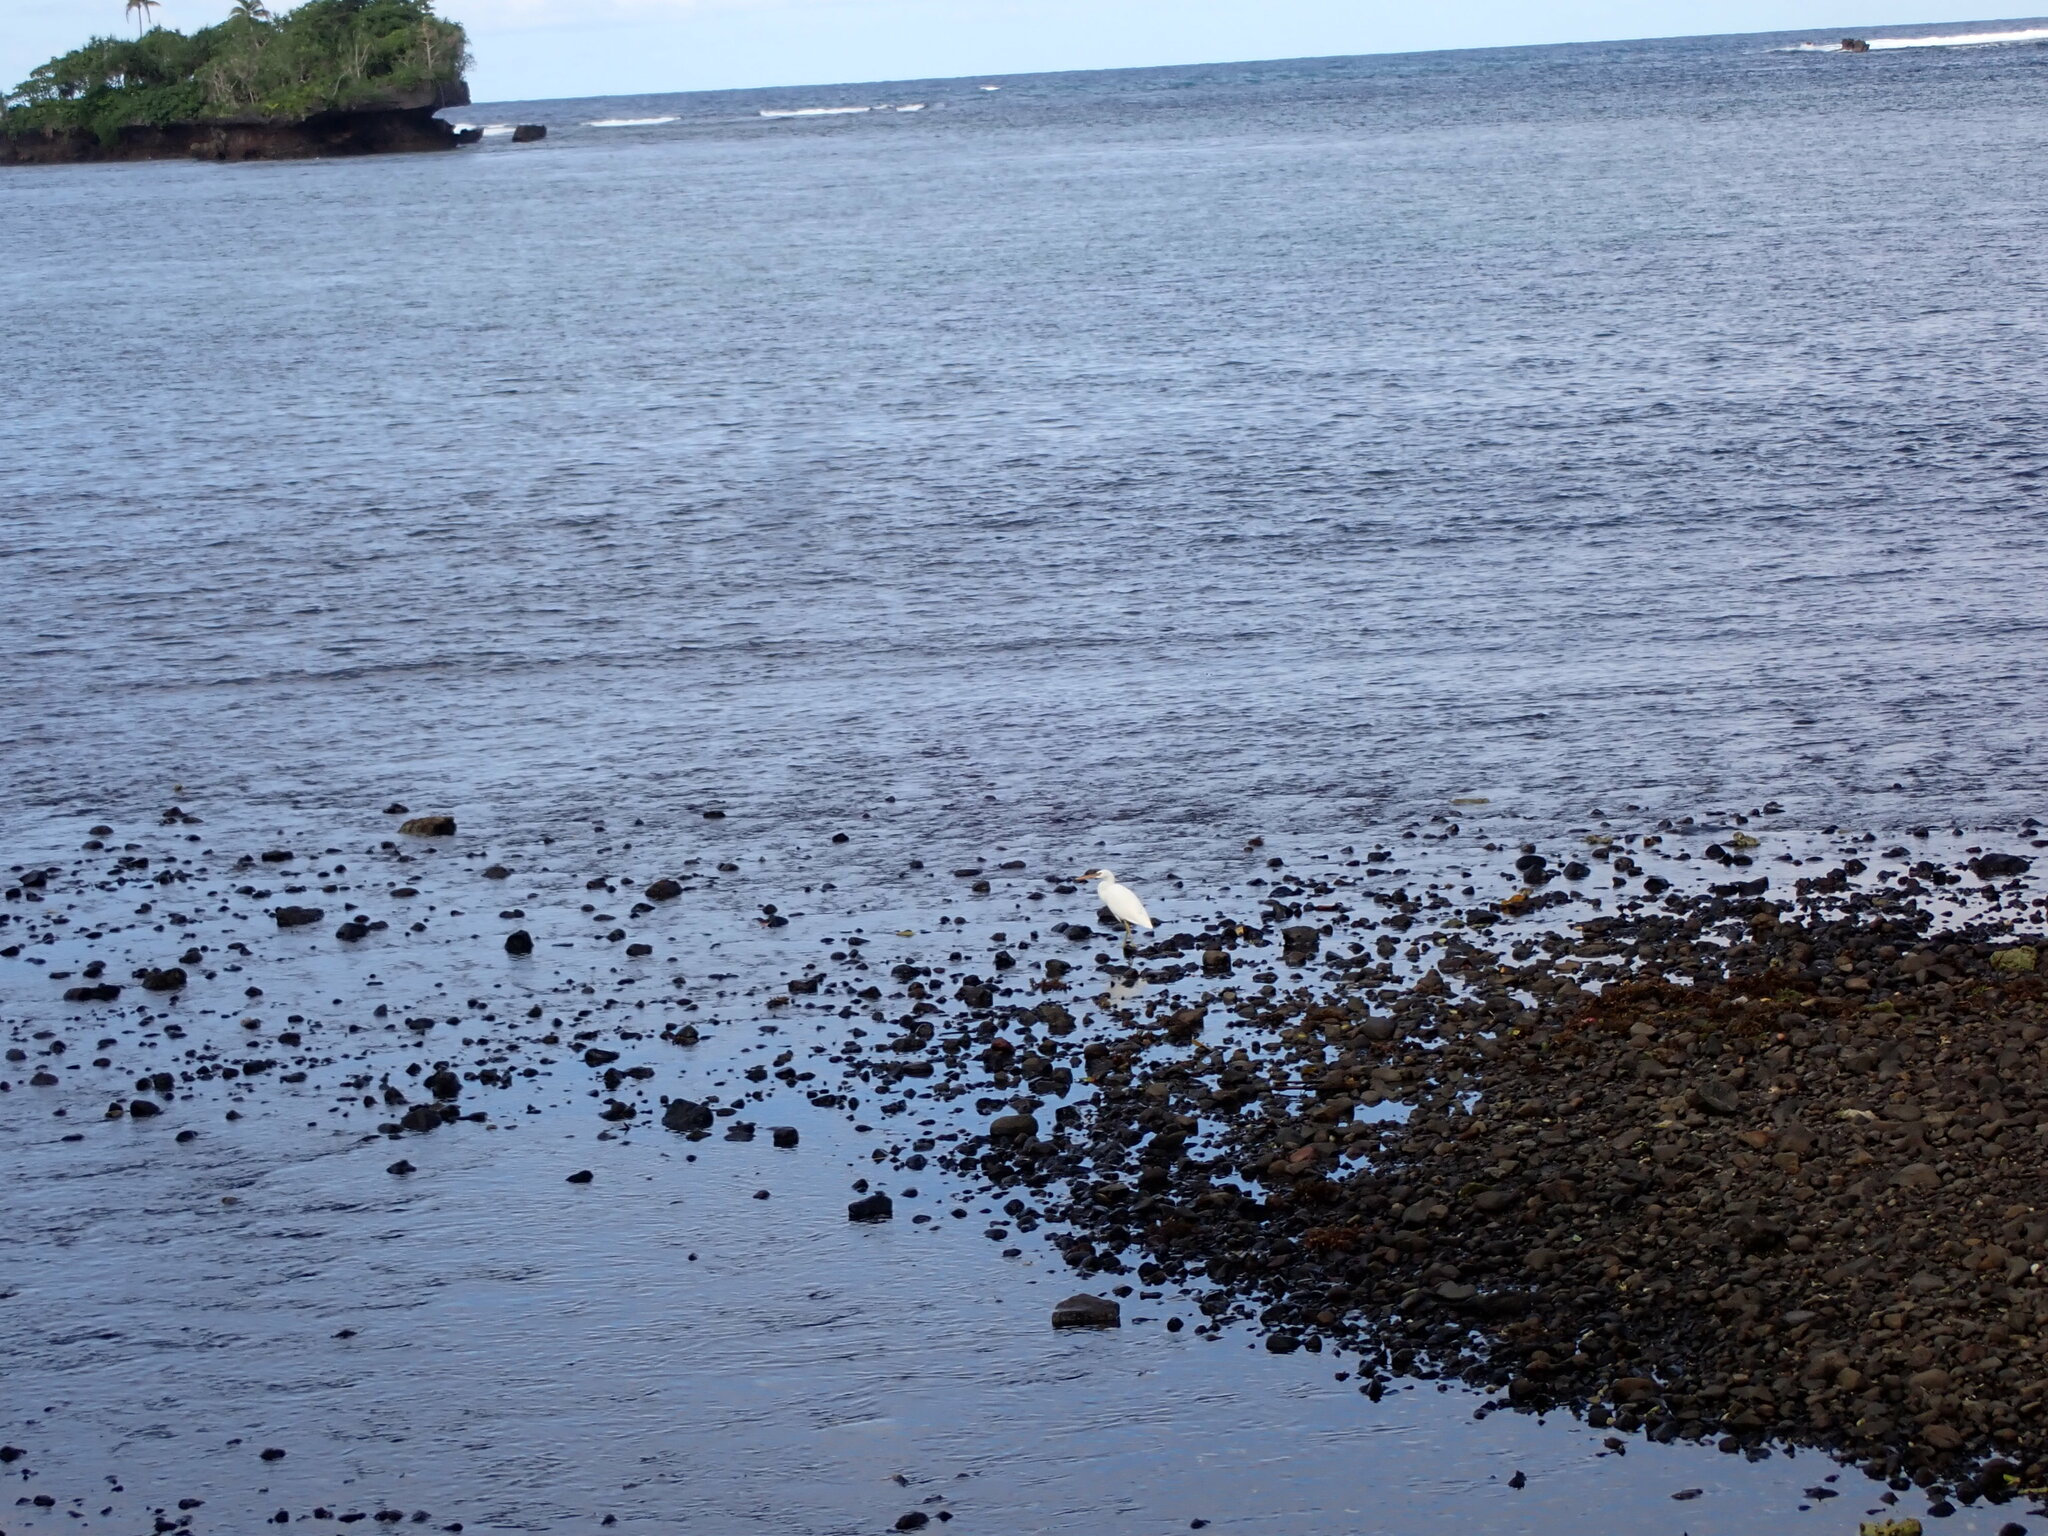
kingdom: Animalia
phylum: Chordata
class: Aves
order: Pelecaniformes
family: Ardeidae
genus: Egretta
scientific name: Egretta sacra
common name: Pacific reef heron
